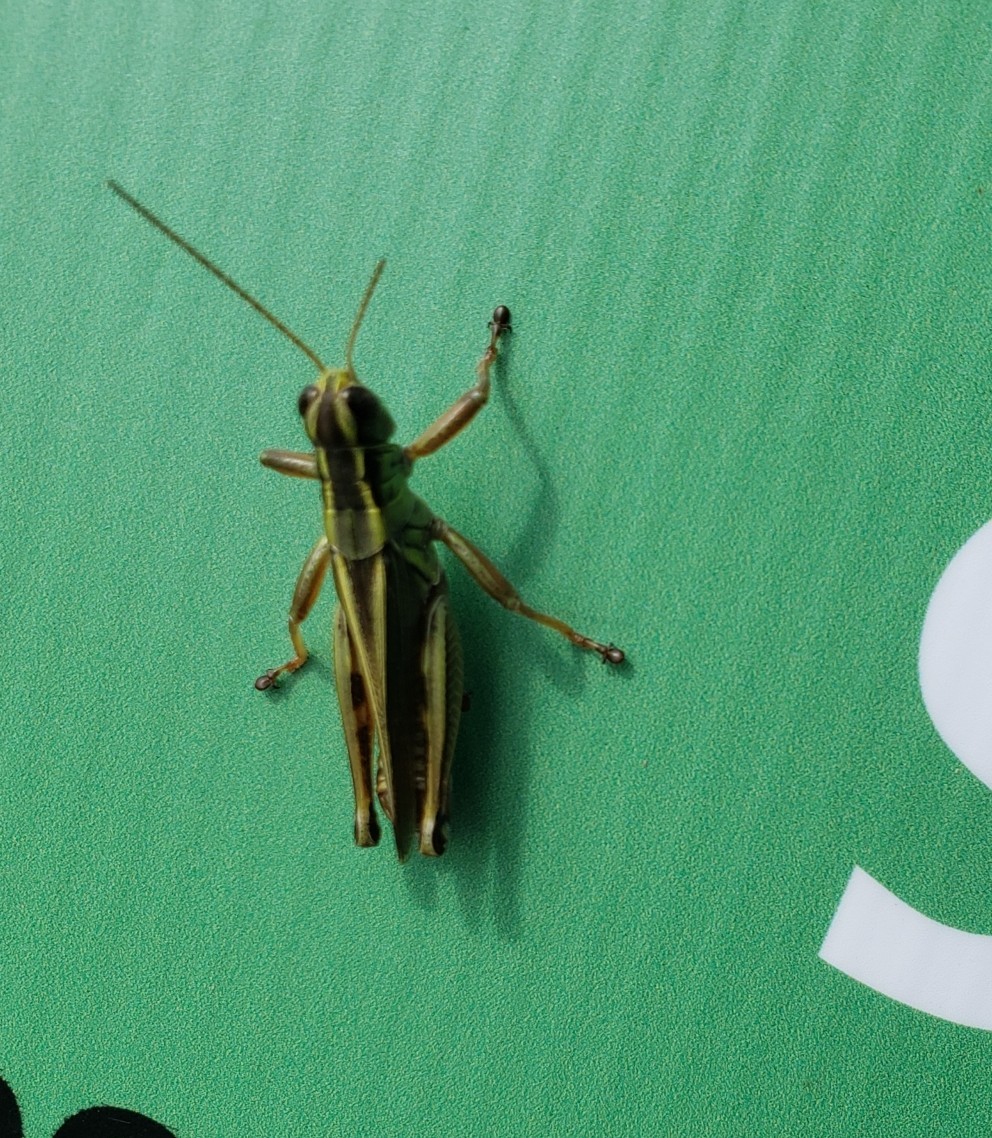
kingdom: Animalia
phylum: Arthropoda
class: Insecta
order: Orthoptera
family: Acrididae
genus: Melanoplus
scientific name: Melanoplus bivittatus
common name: Two-striped grasshopper
